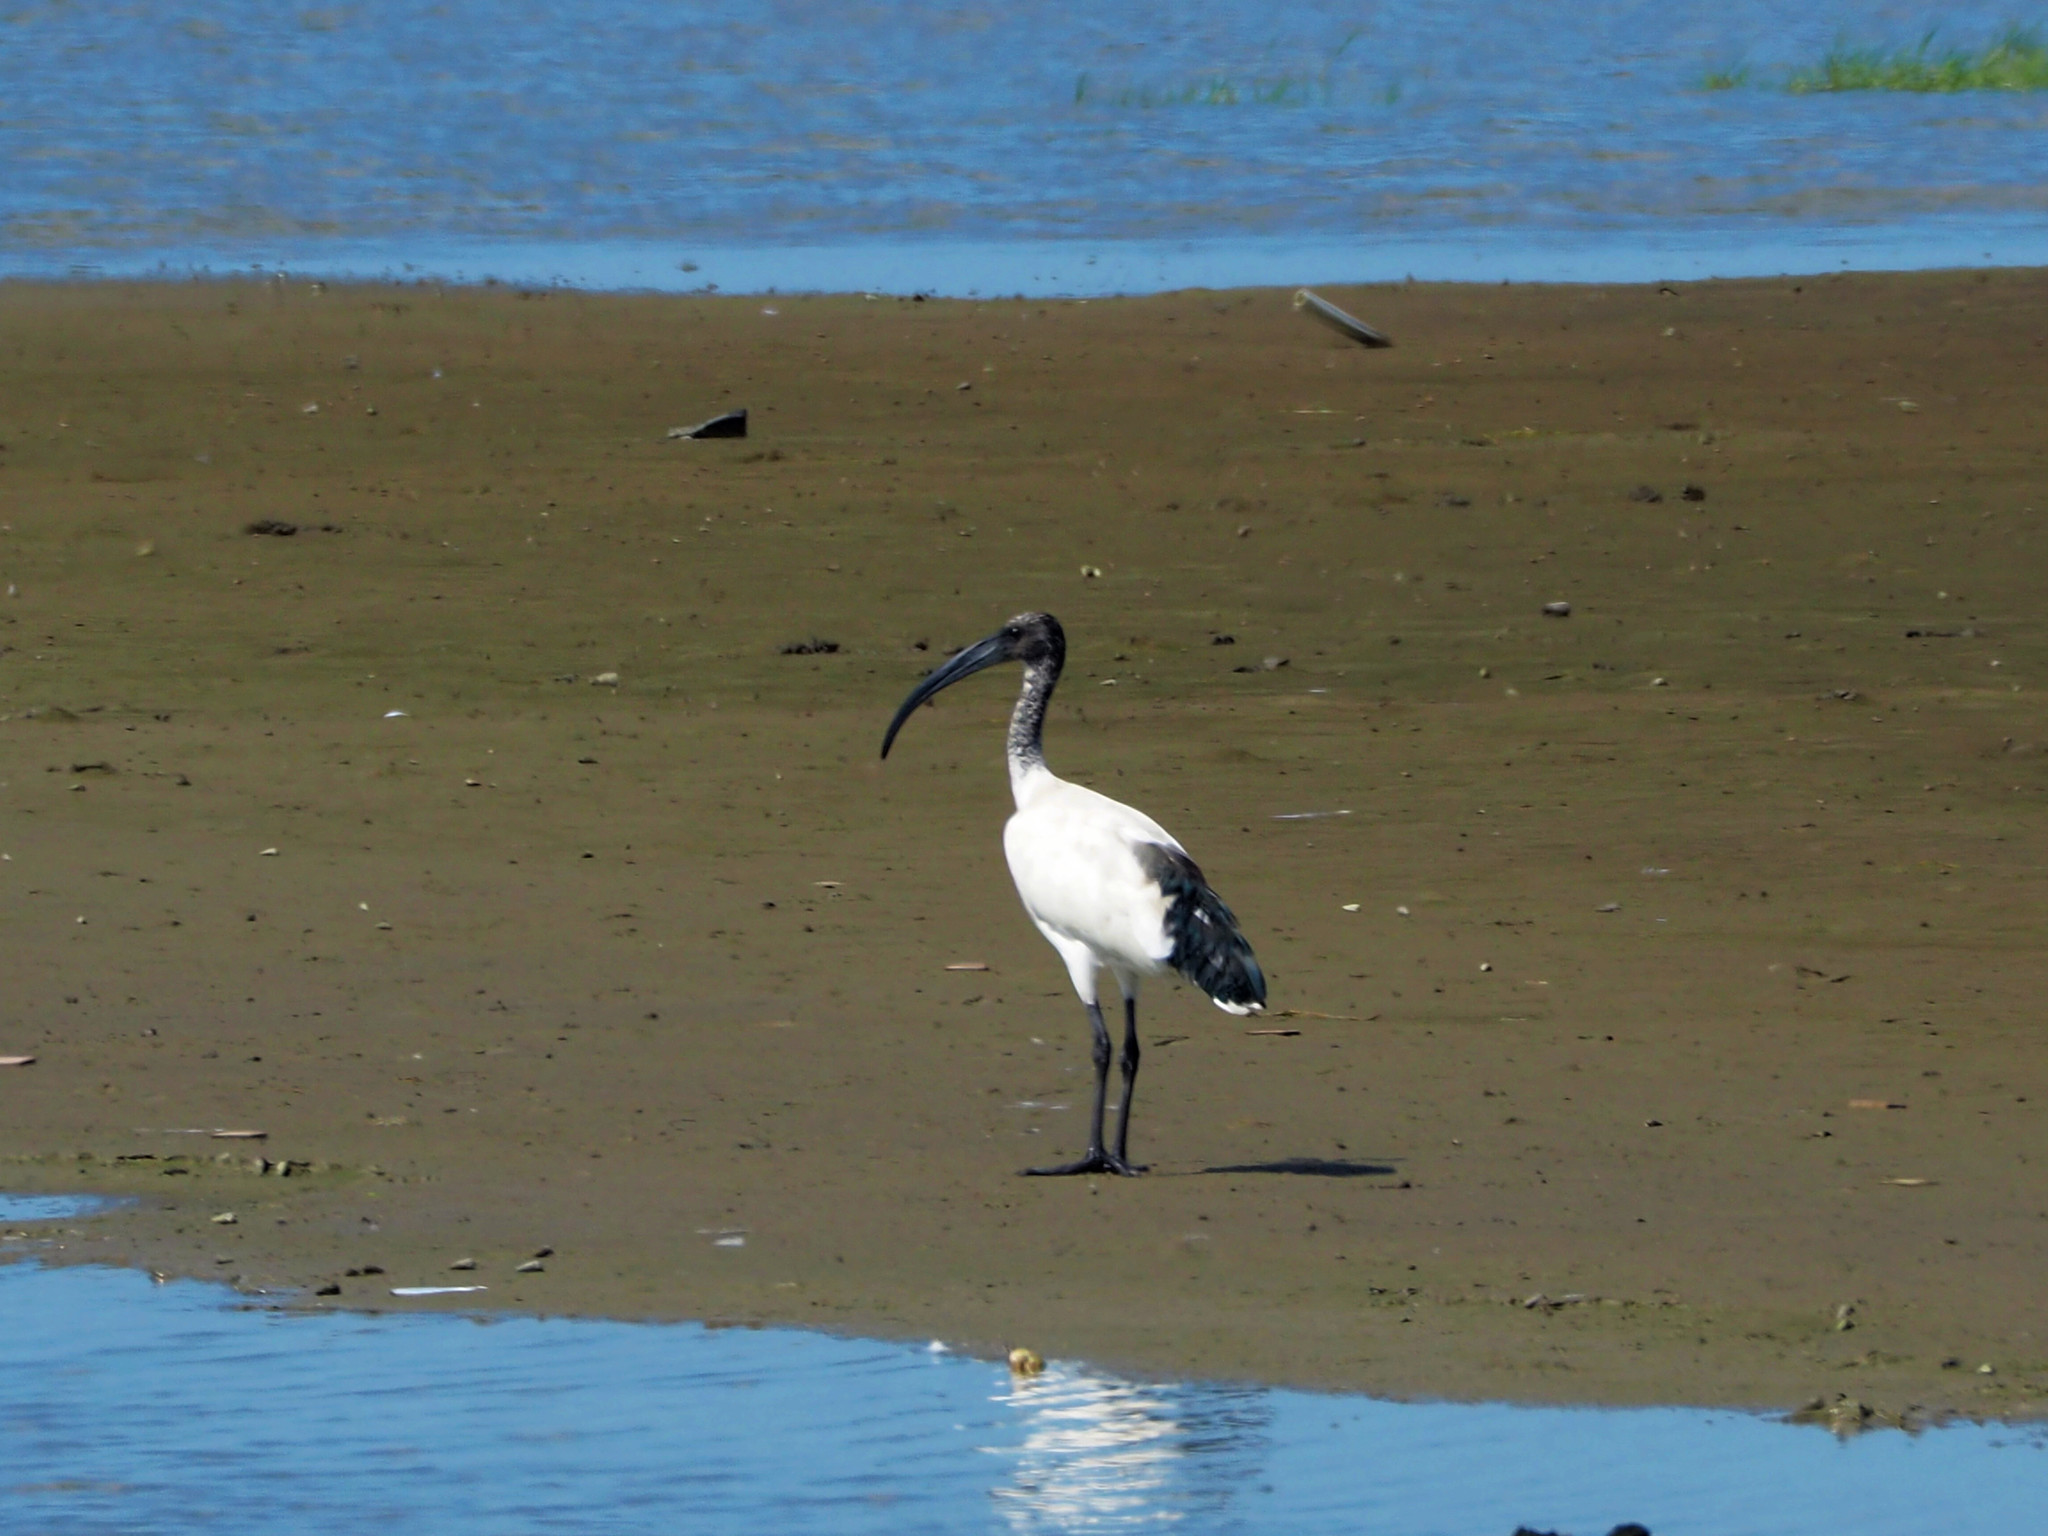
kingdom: Animalia
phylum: Chordata
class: Aves
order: Pelecaniformes
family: Threskiornithidae
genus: Threskiornis
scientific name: Threskiornis aethiopicus
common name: Sacred ibis
